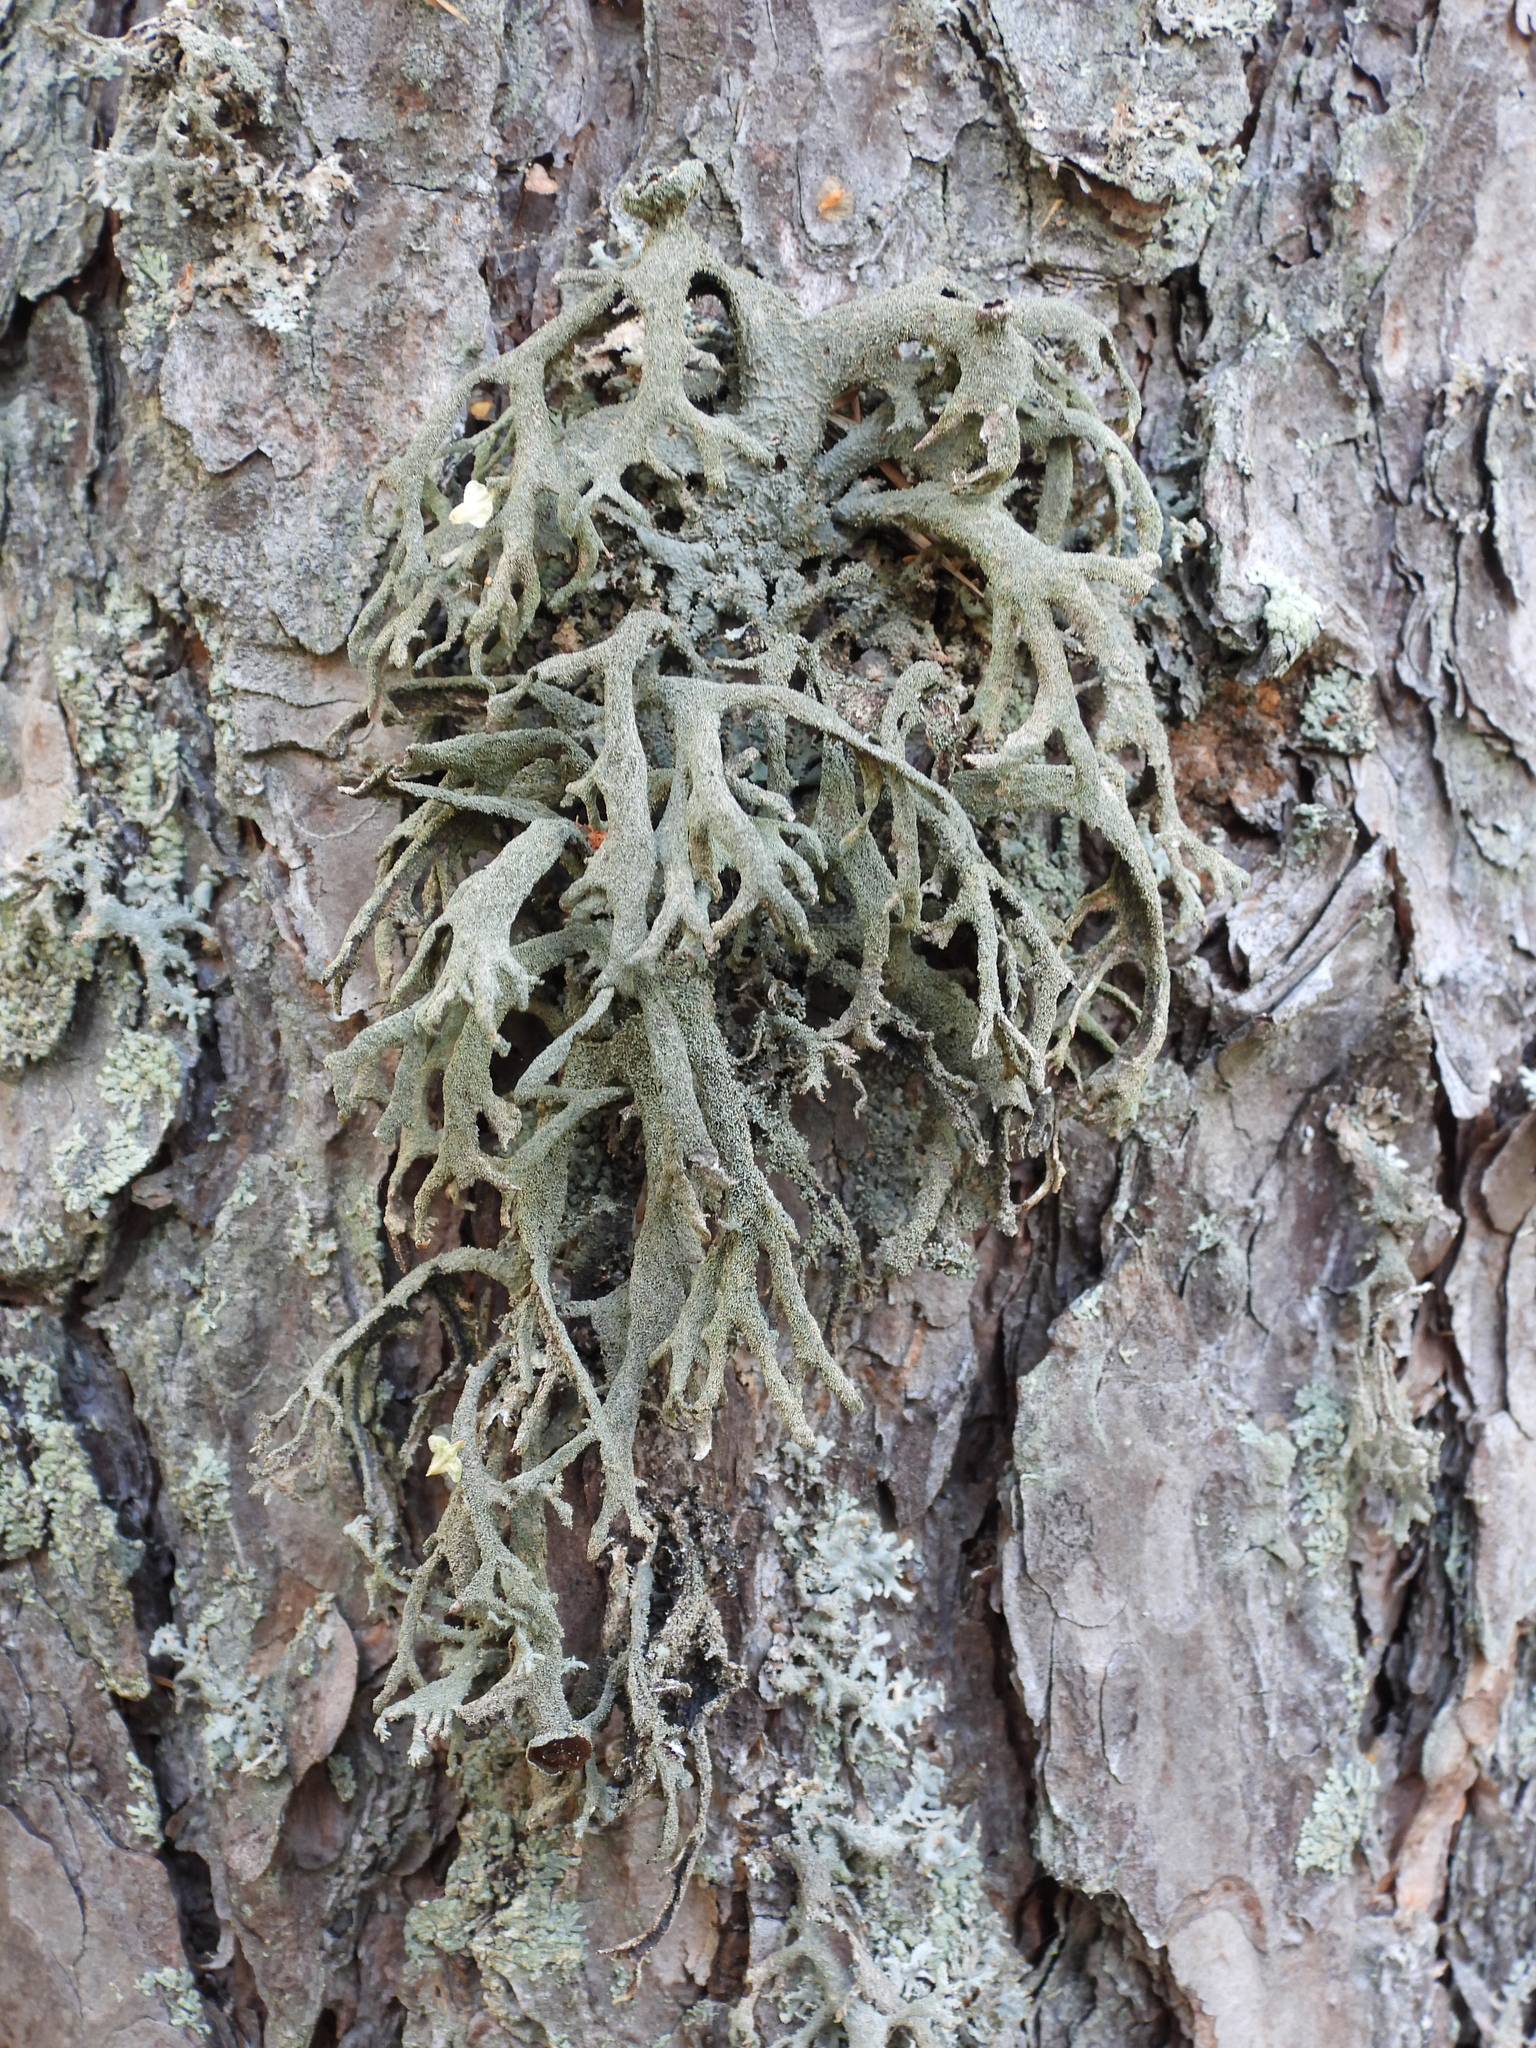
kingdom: Fungi
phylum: Ascomycota
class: Lecanoromycetes
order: Lecanorales
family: Parmeliaceae
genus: Pseudevernia
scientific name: Pseudevernia furfuracea
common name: Tree moss
